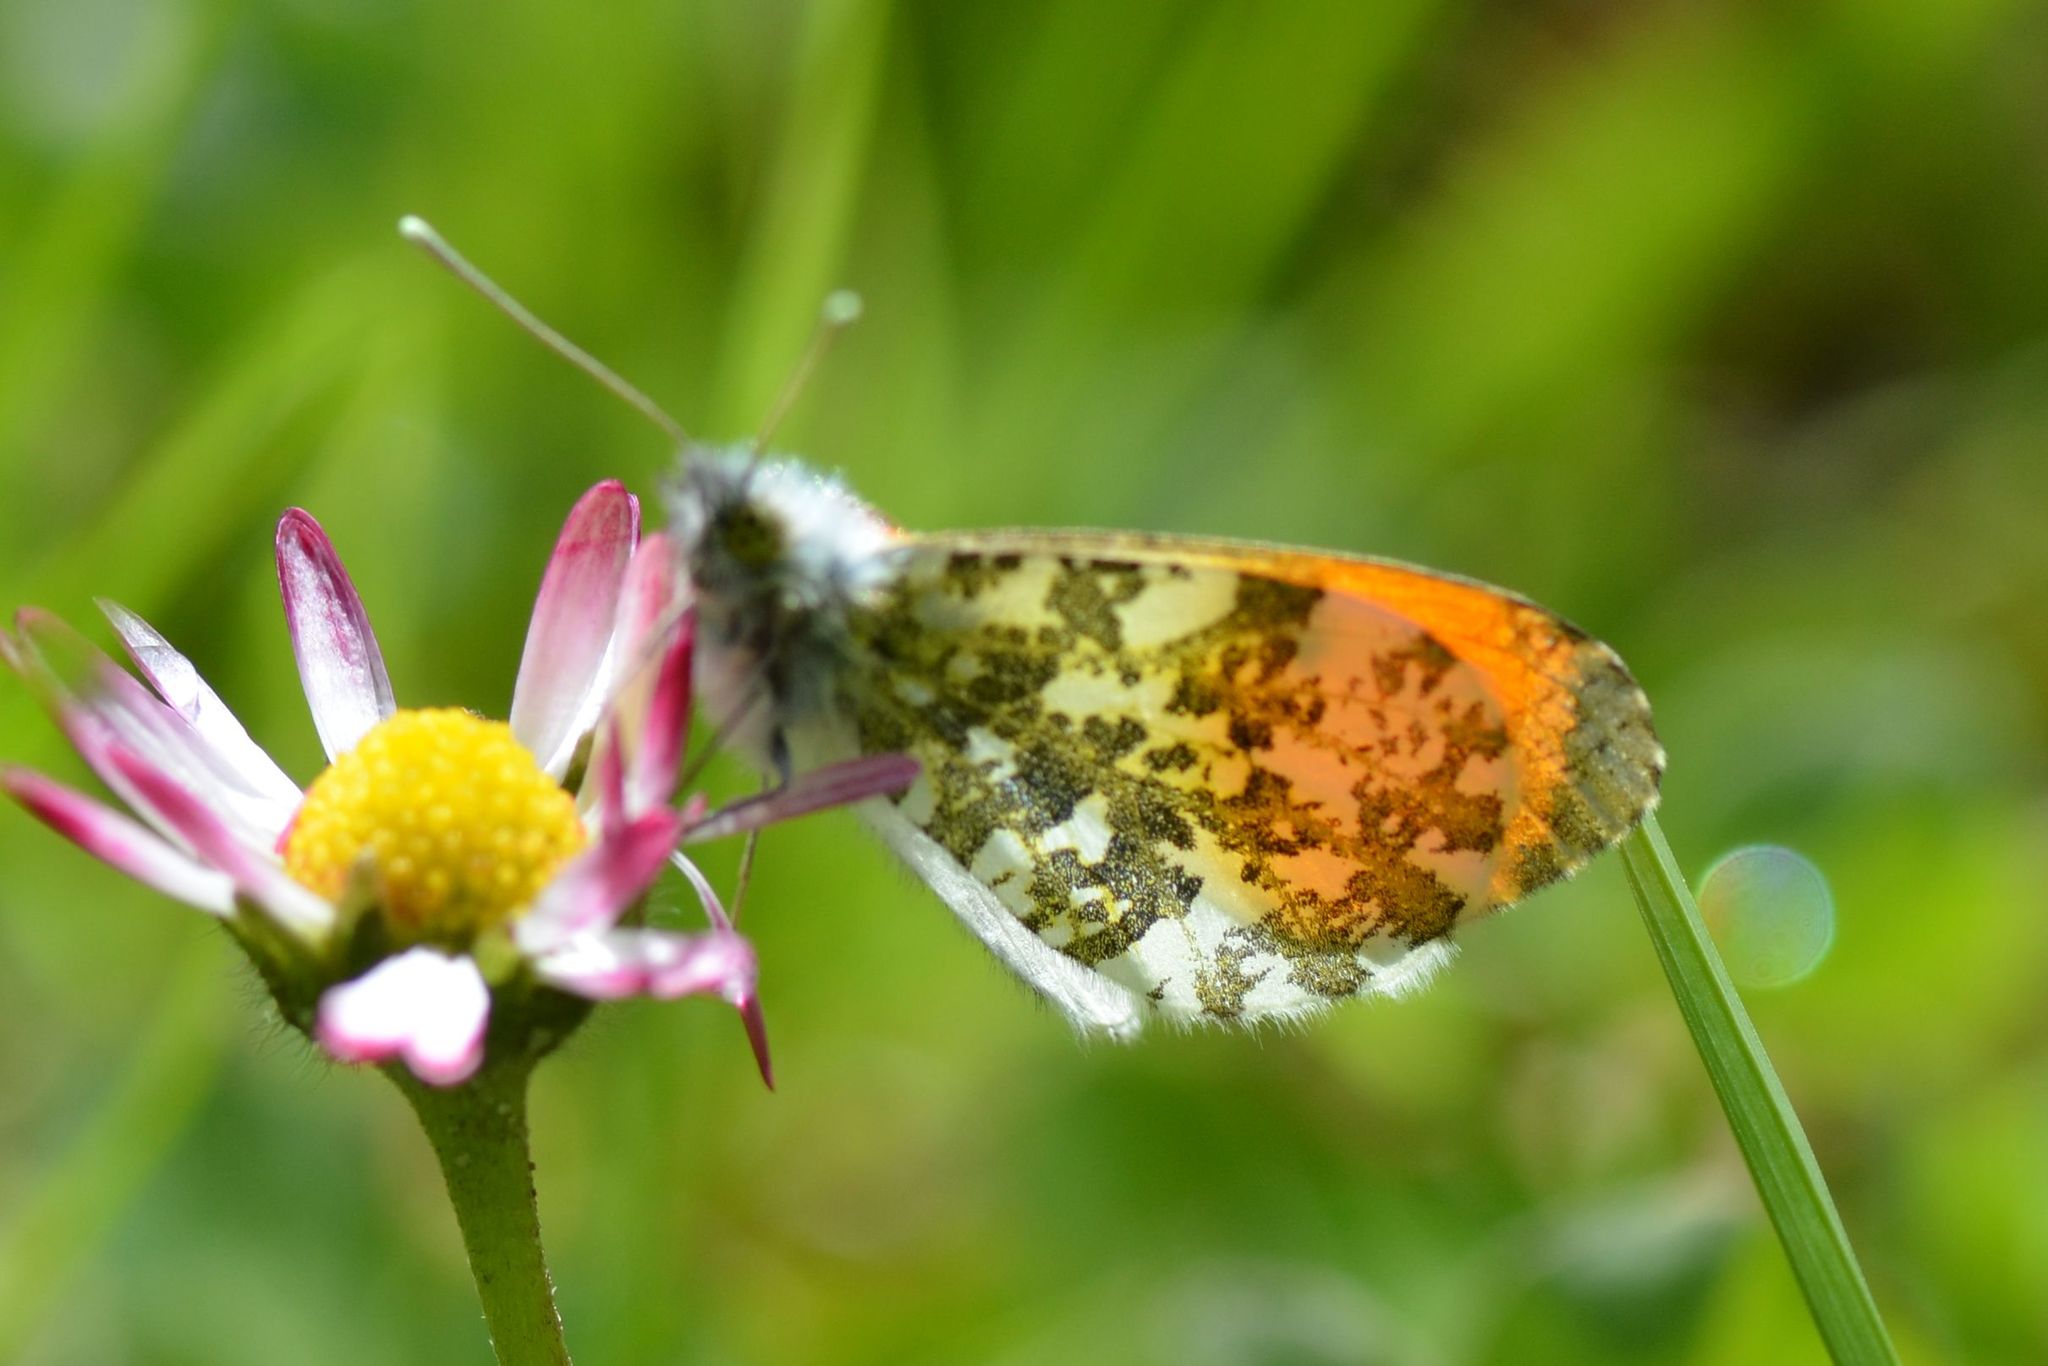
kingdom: Animalia
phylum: Arthropoda
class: Insecta
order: Lepidoptera
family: Pieridae
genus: Anthocharis
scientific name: Anthocharis cardamines
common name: Orange-tip
